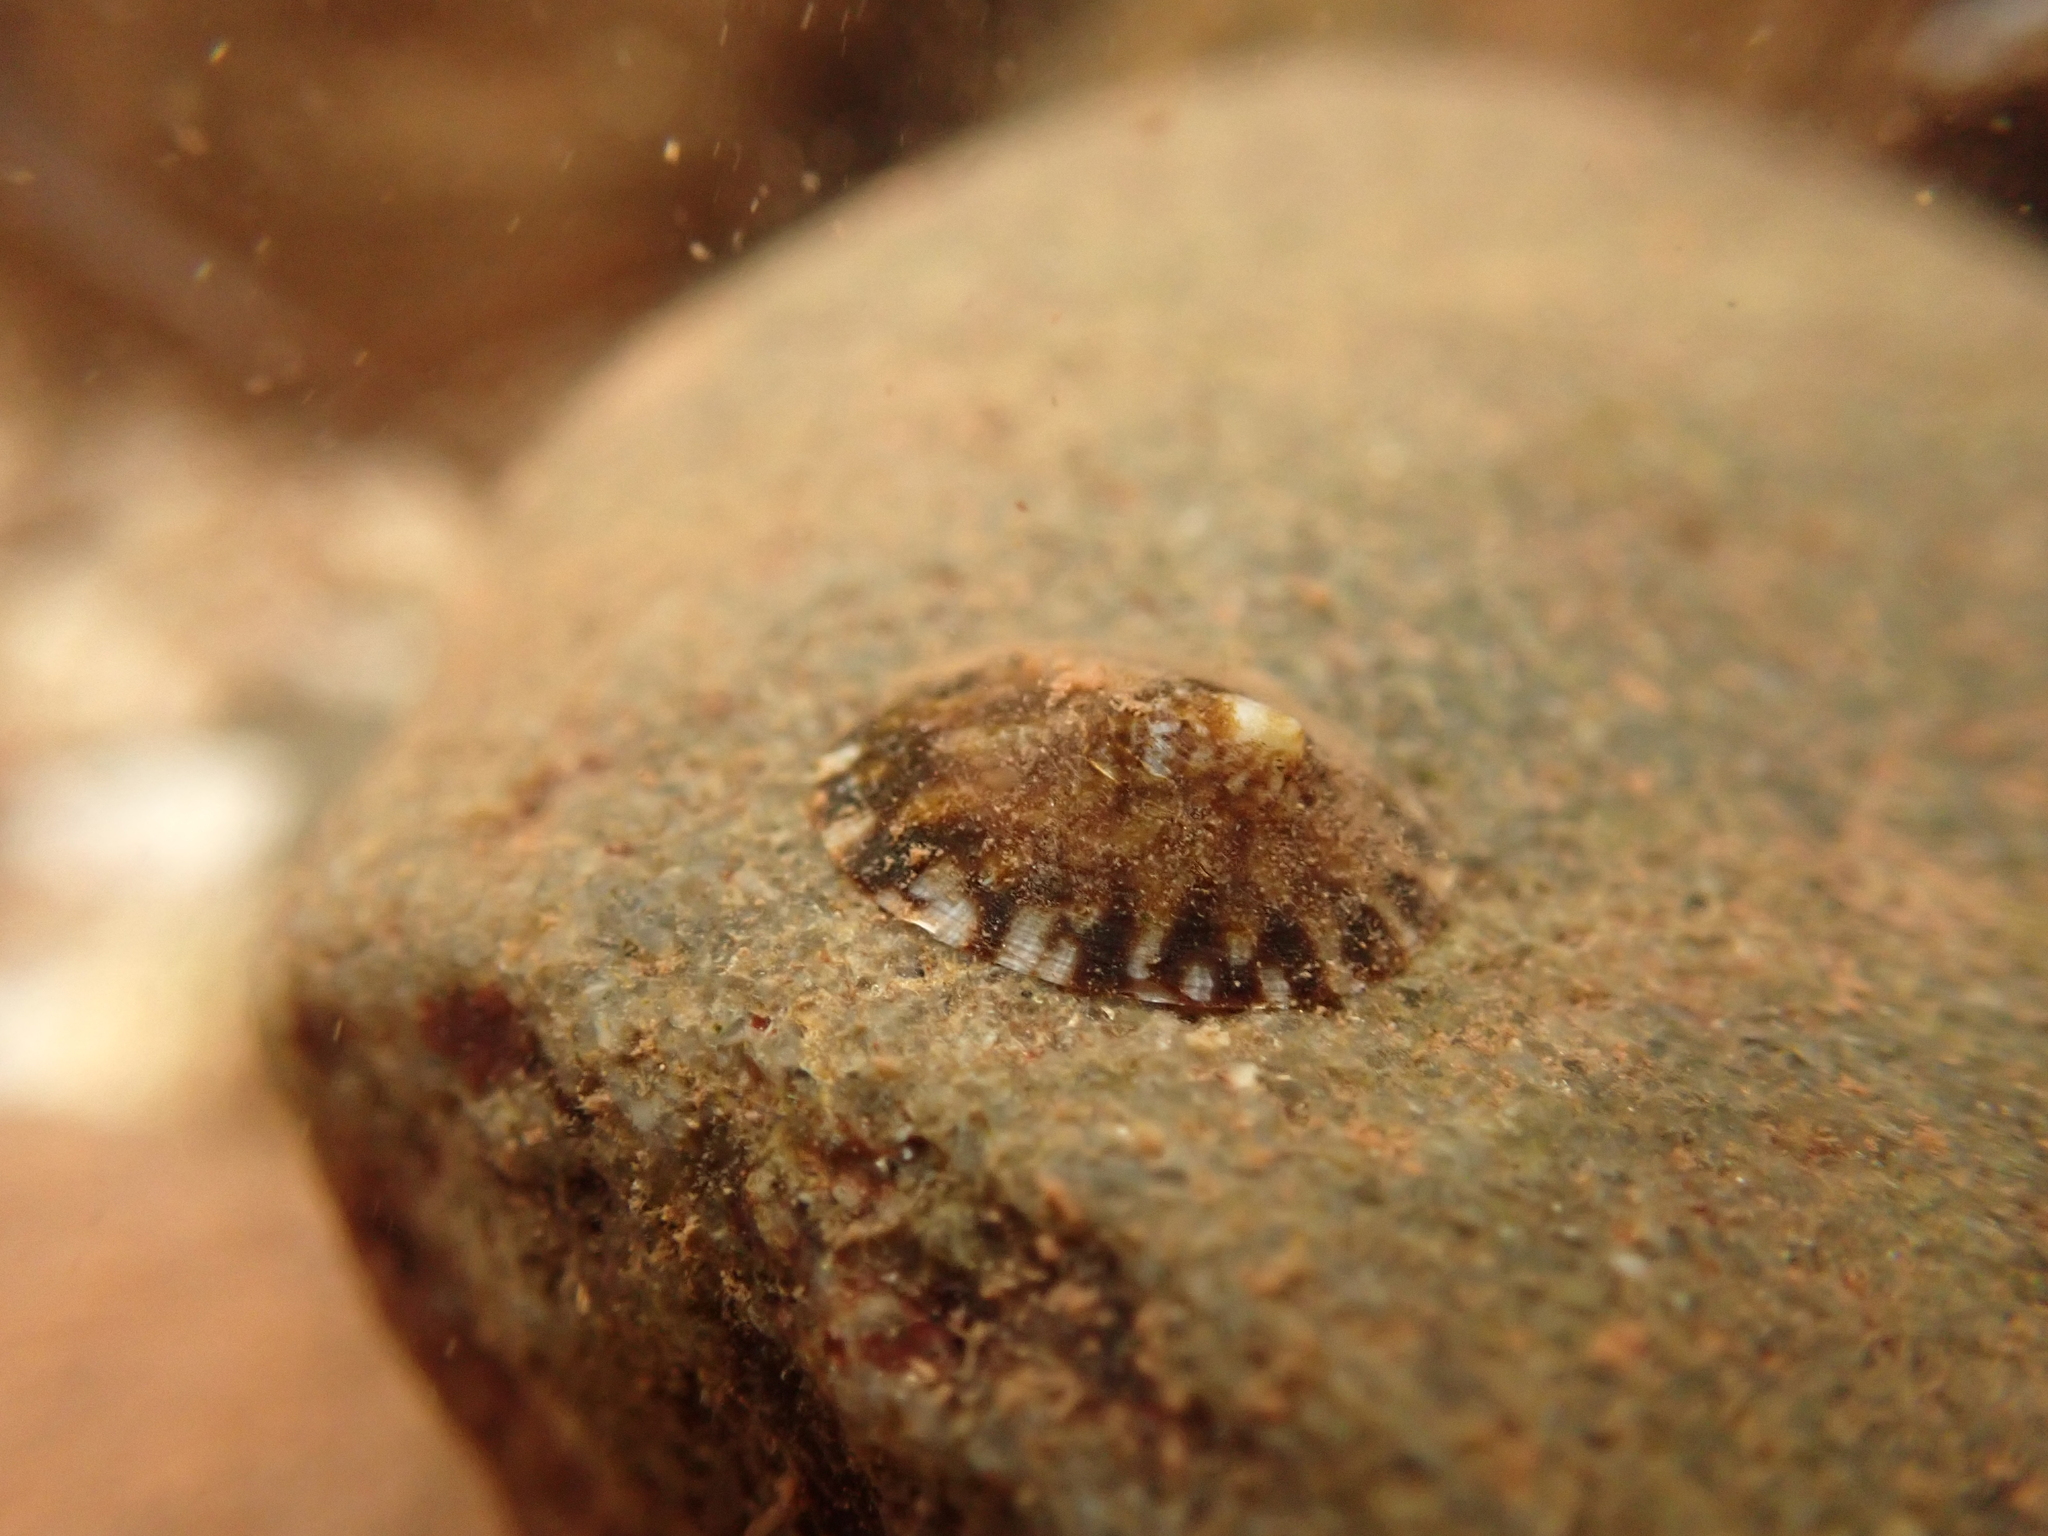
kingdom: Animalia
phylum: Mollusca
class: Gastropoda
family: Lottiidae
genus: Testudinalia
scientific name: Testudinalia testudinalis
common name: Common tortoiseshell limpet
